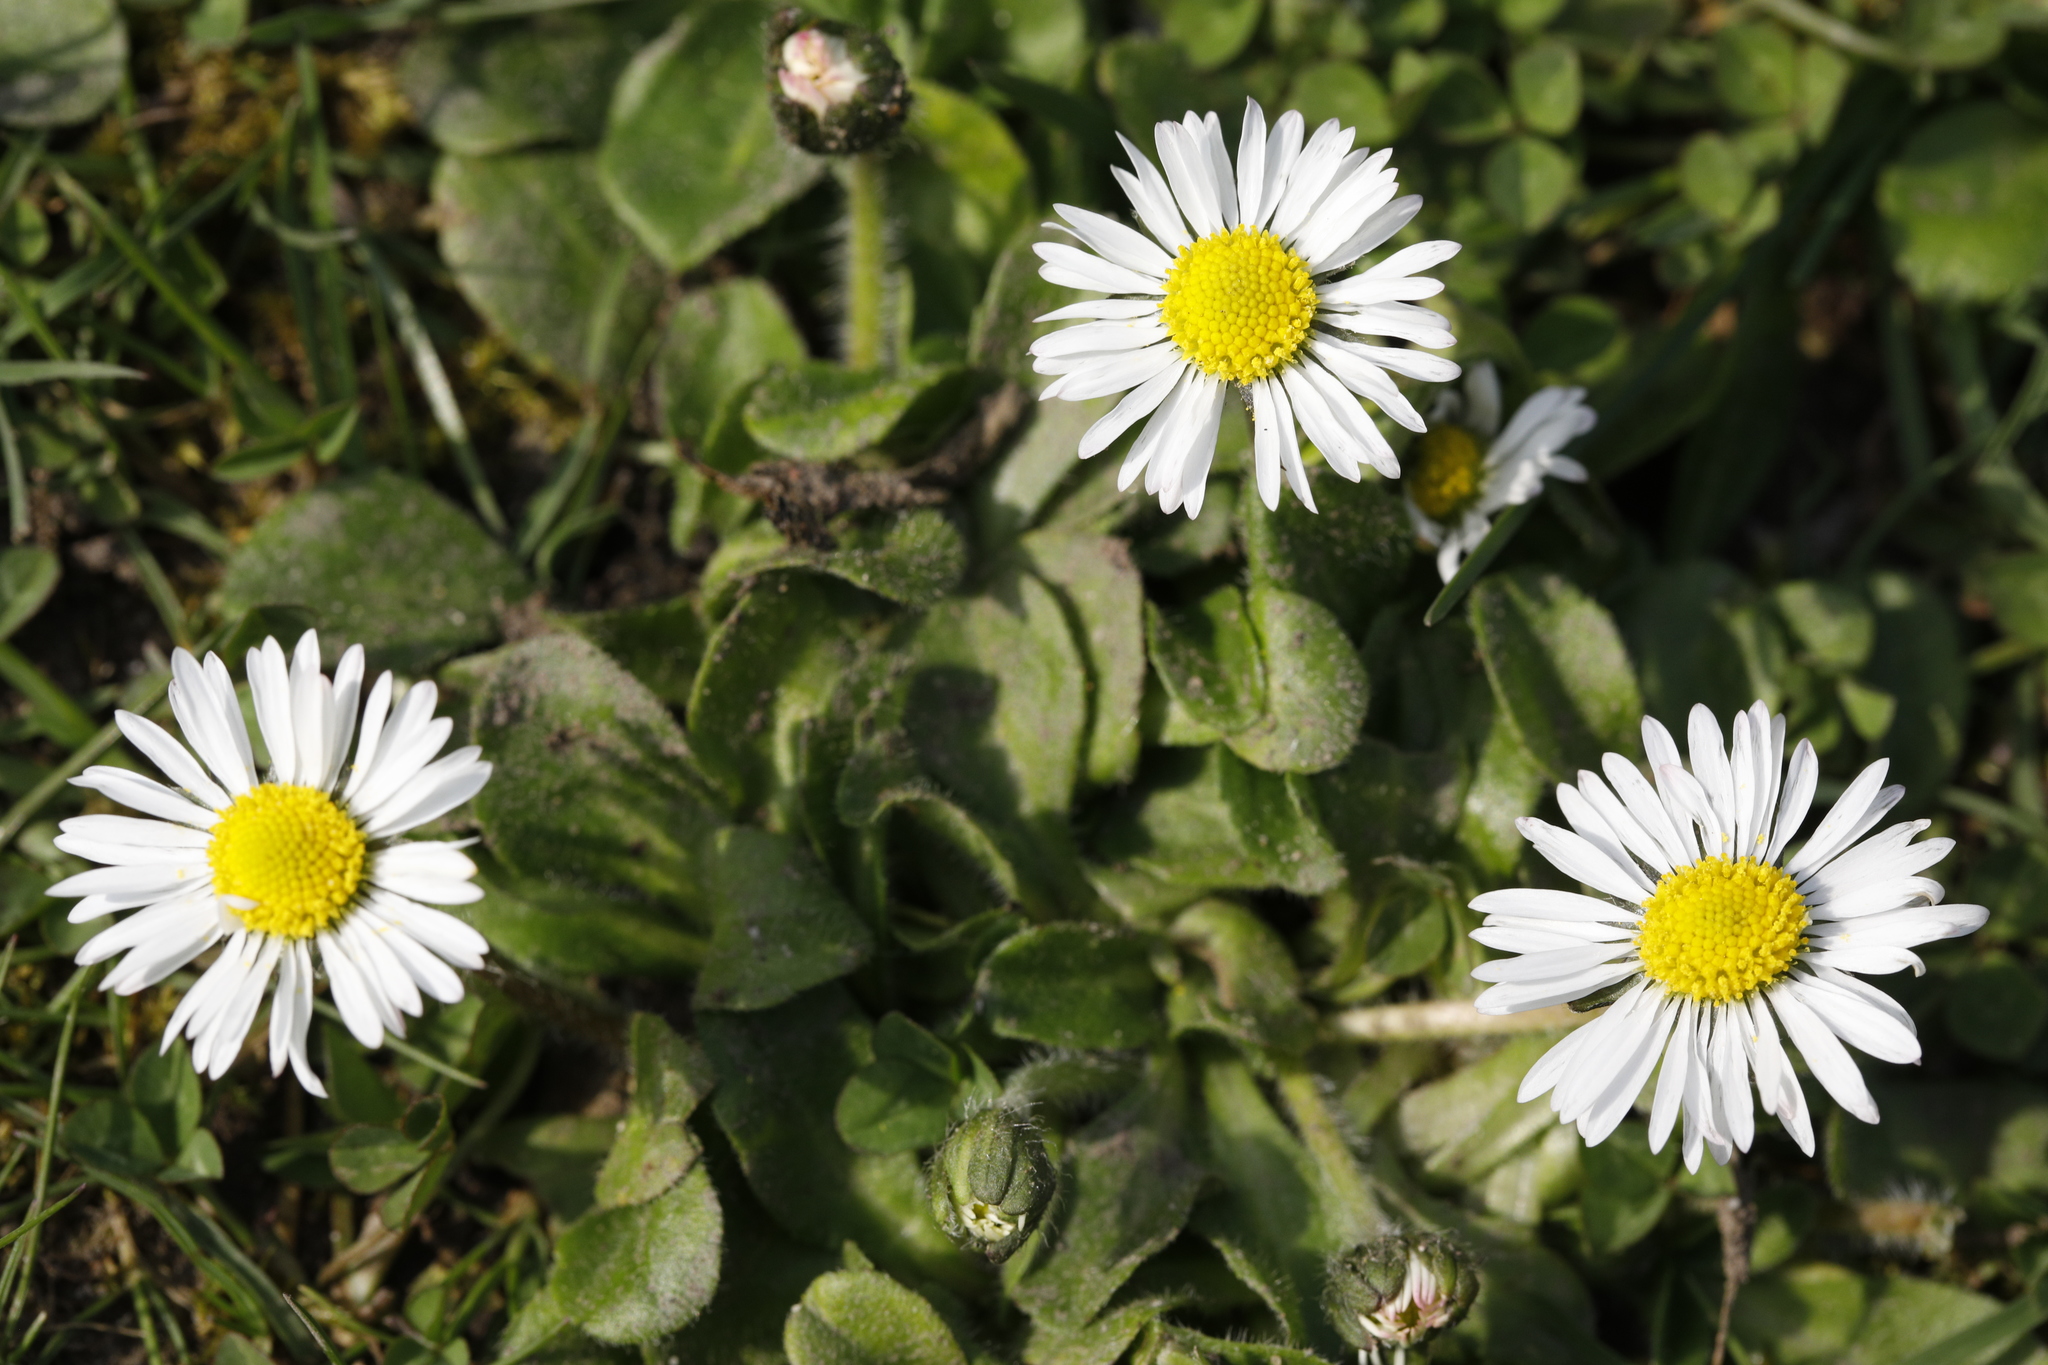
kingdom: Plantae
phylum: Tracheophyta
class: Magnoliopsida
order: Asterales
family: Asteraceae
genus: Bellis
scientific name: Bellis perennis
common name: Lawndaisy
